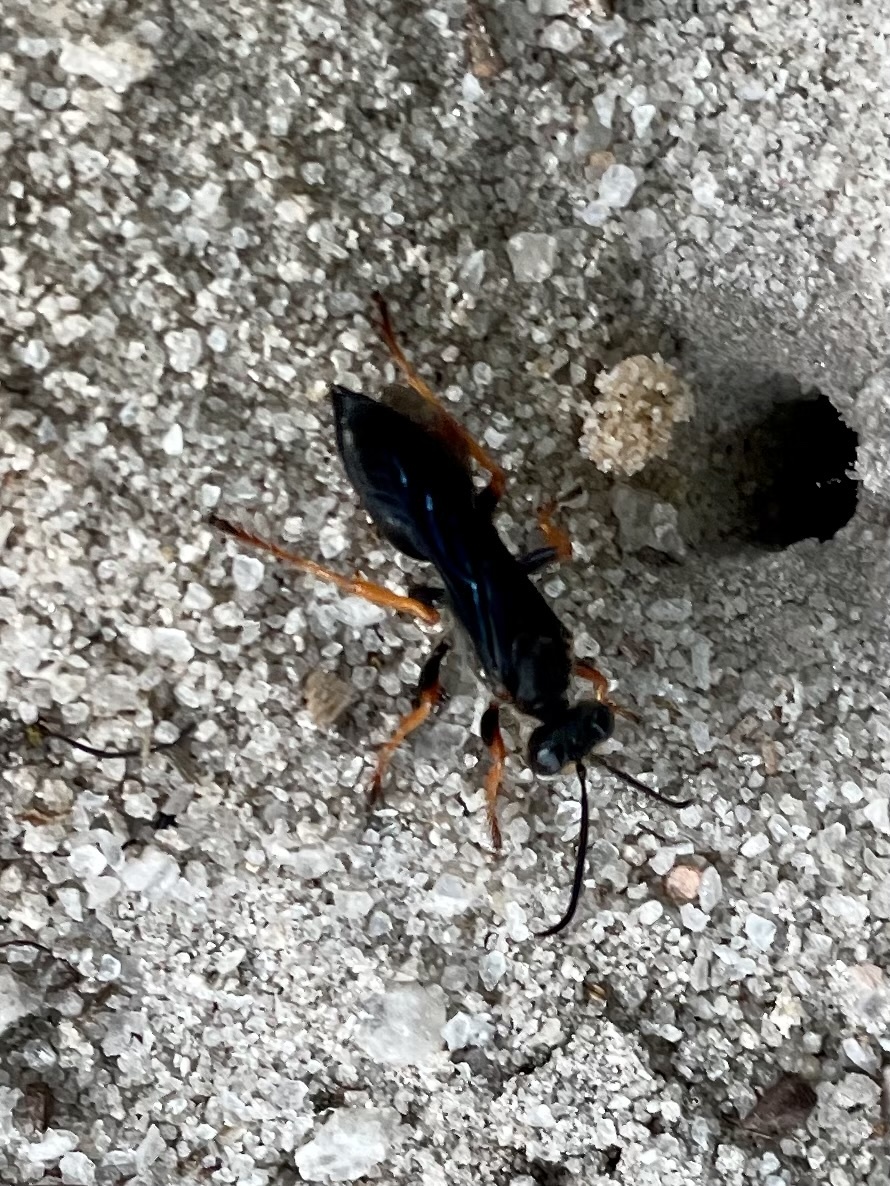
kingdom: Animalia
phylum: Arthropoda
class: Insecta
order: Hymenoptera
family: Sphecidae
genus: Sphex
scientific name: Sphex nudus
